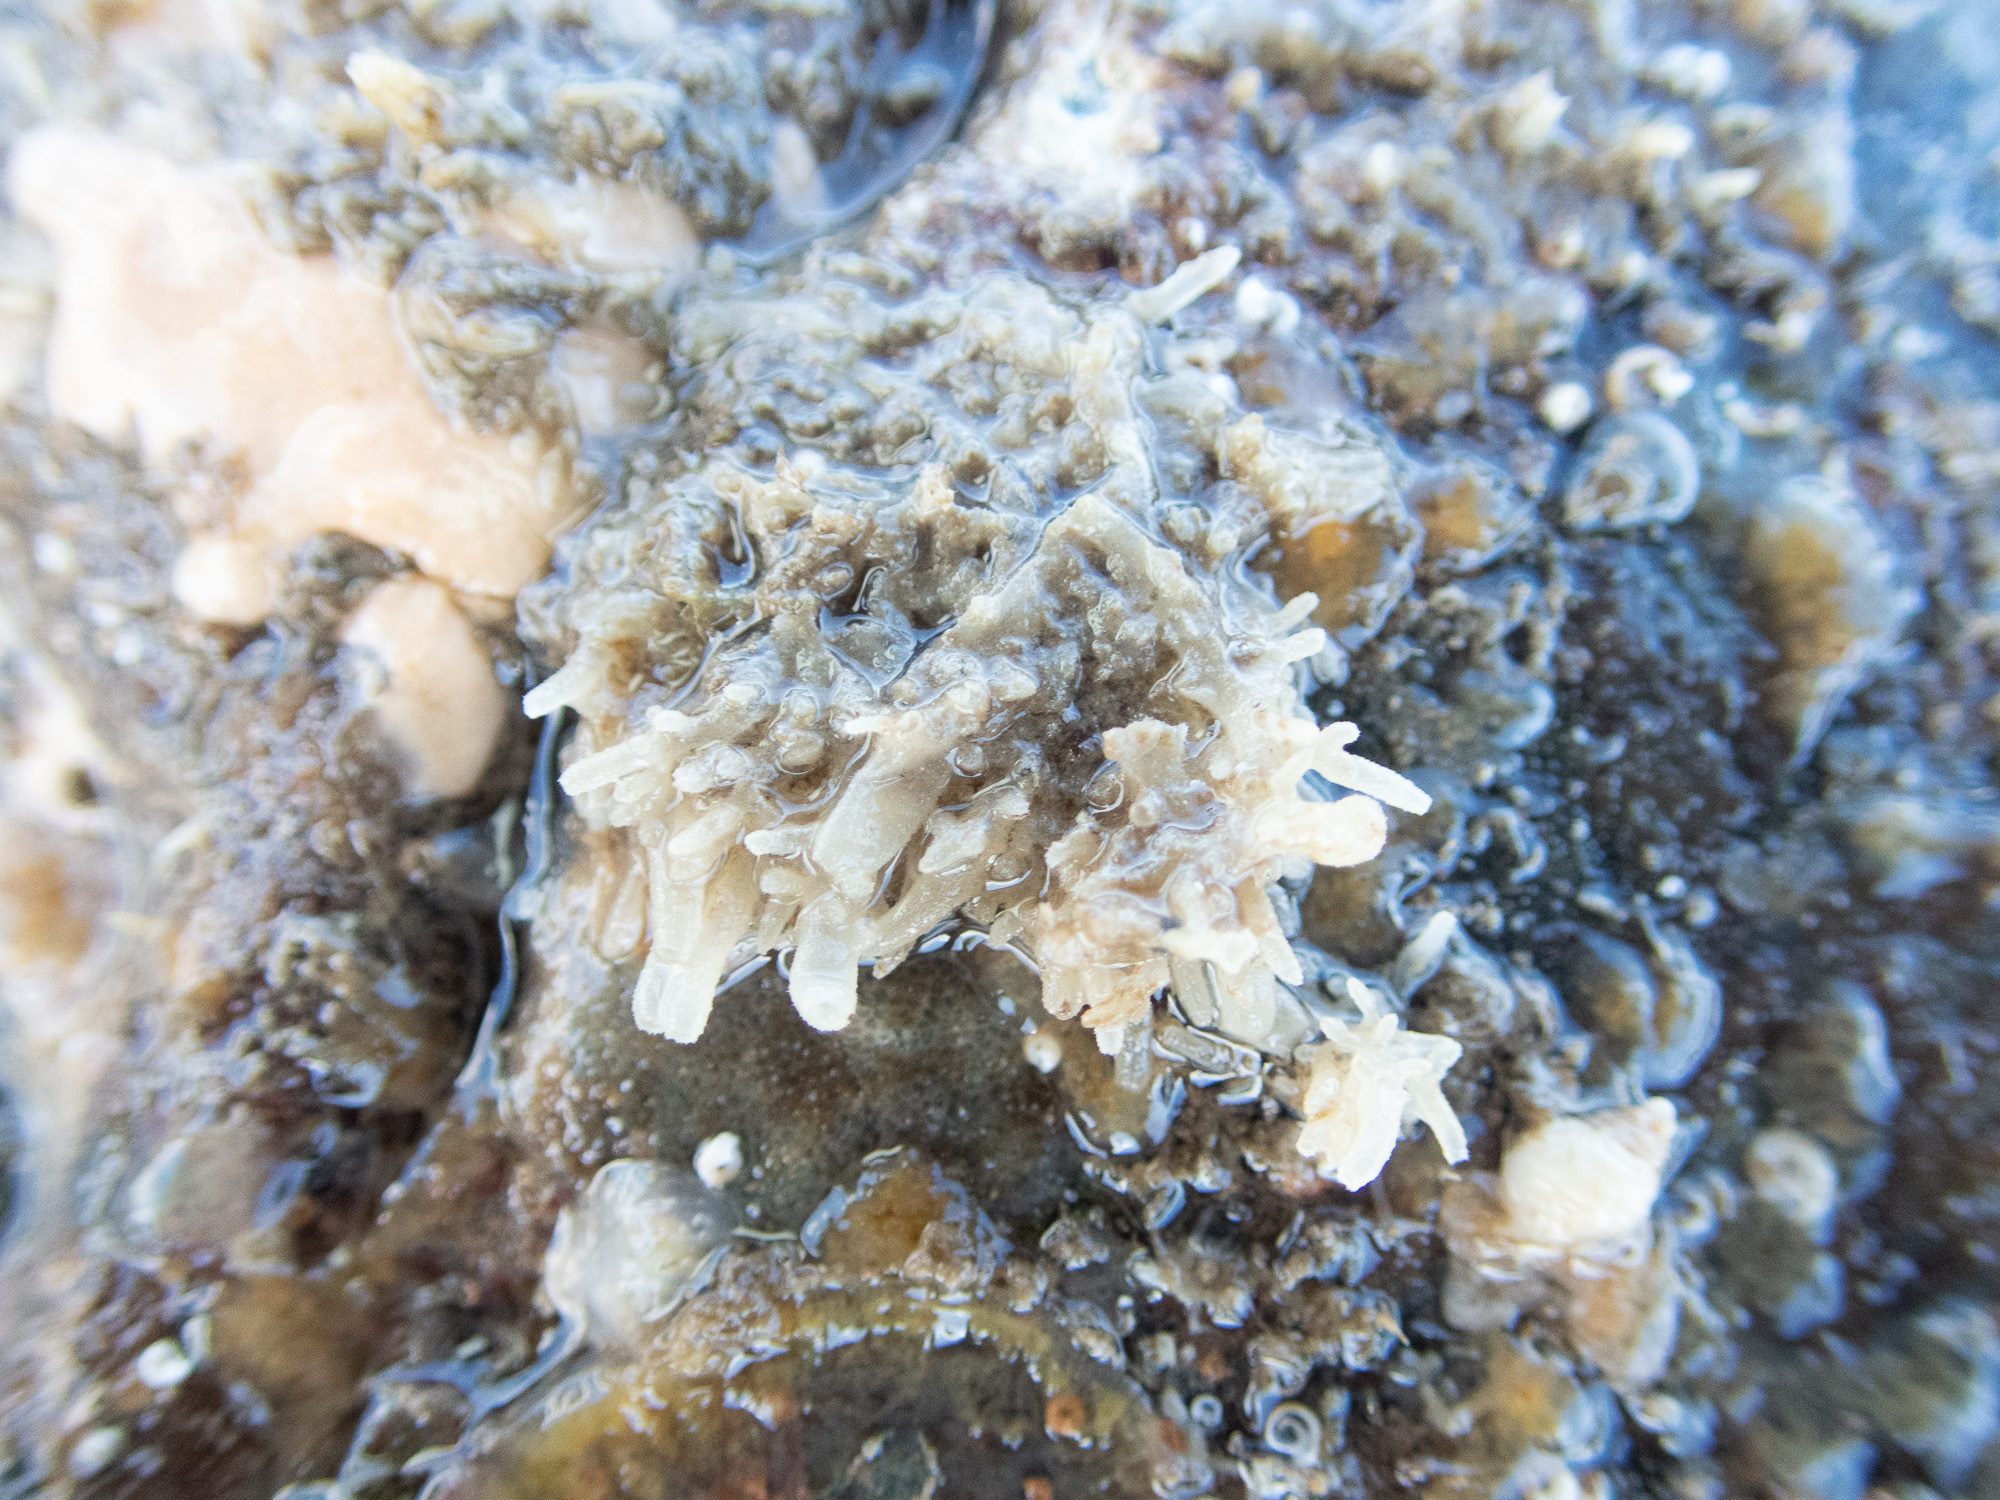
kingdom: Animalia
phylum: Porifera
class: Calcarea
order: Leucosolenida
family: Leucosoleniidae
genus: Leucosolenia
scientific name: Leucosolenia botryoides
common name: Orange pipe sponge
